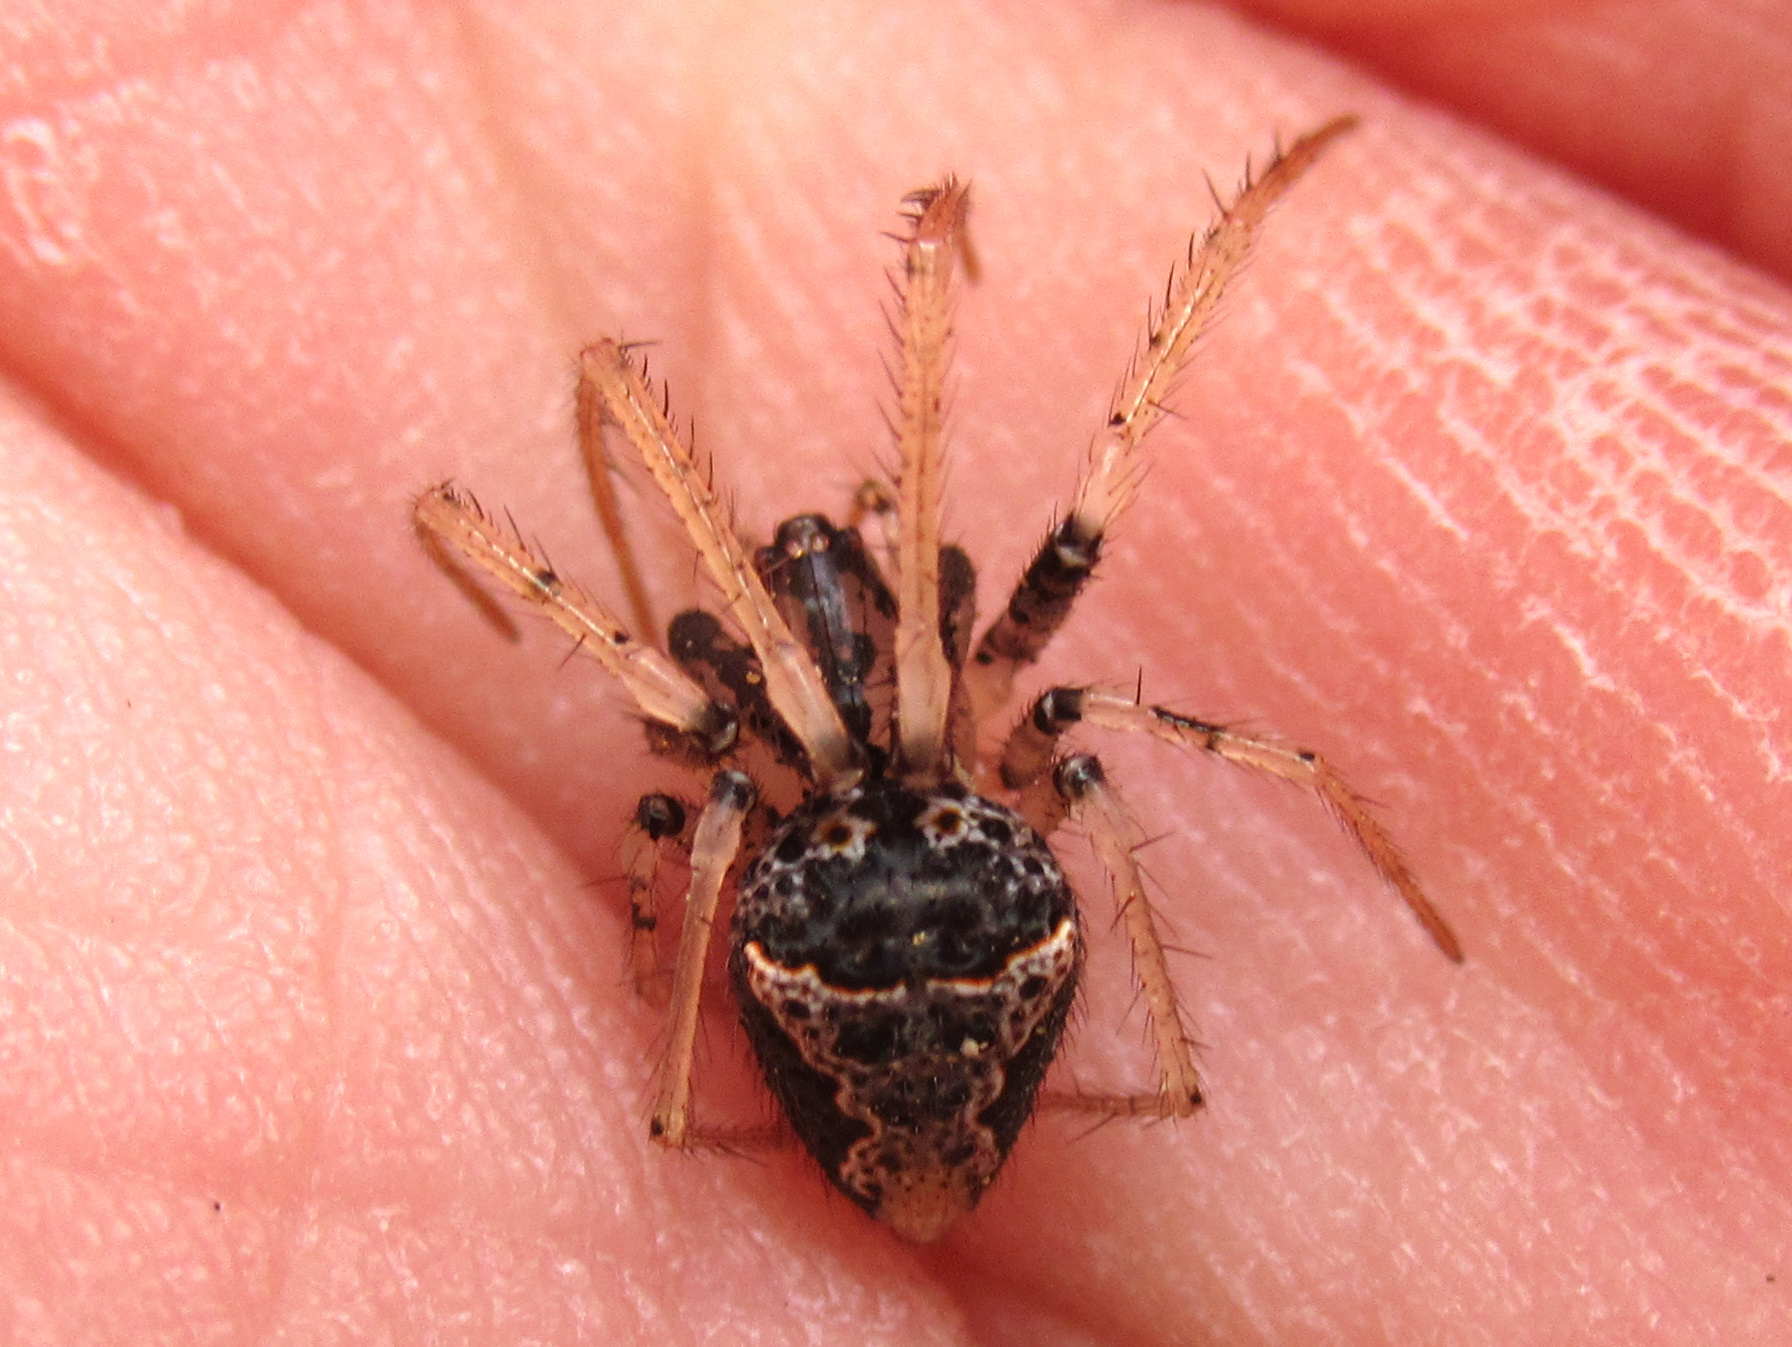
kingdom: Animalia
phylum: Arthropoda
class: Arachnida
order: Araneae
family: Mimetidae
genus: Australomimetus
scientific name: Australomimetus hartleyensis
